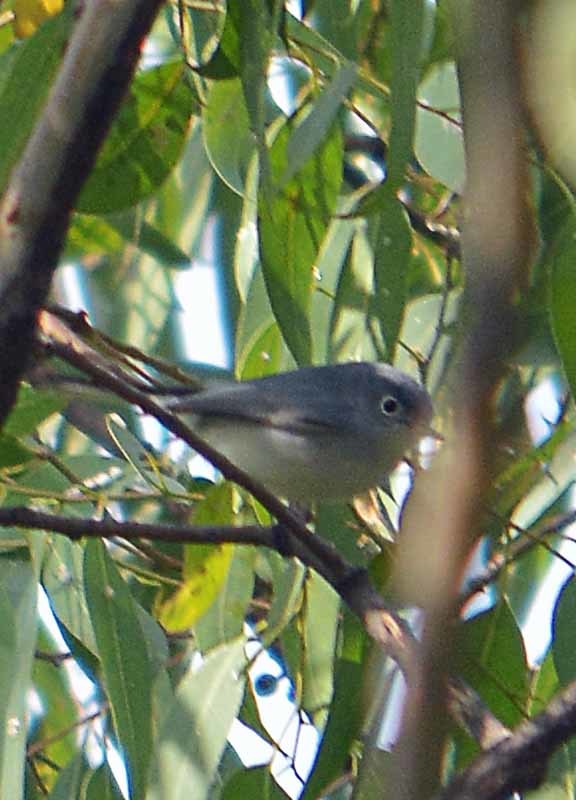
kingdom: Animalia
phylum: Chordata
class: Aves
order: Passeriformes
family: Polioptilidae
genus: Polioptila
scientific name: Polioptila caerulea
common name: Blue-gray gnatcatcher
